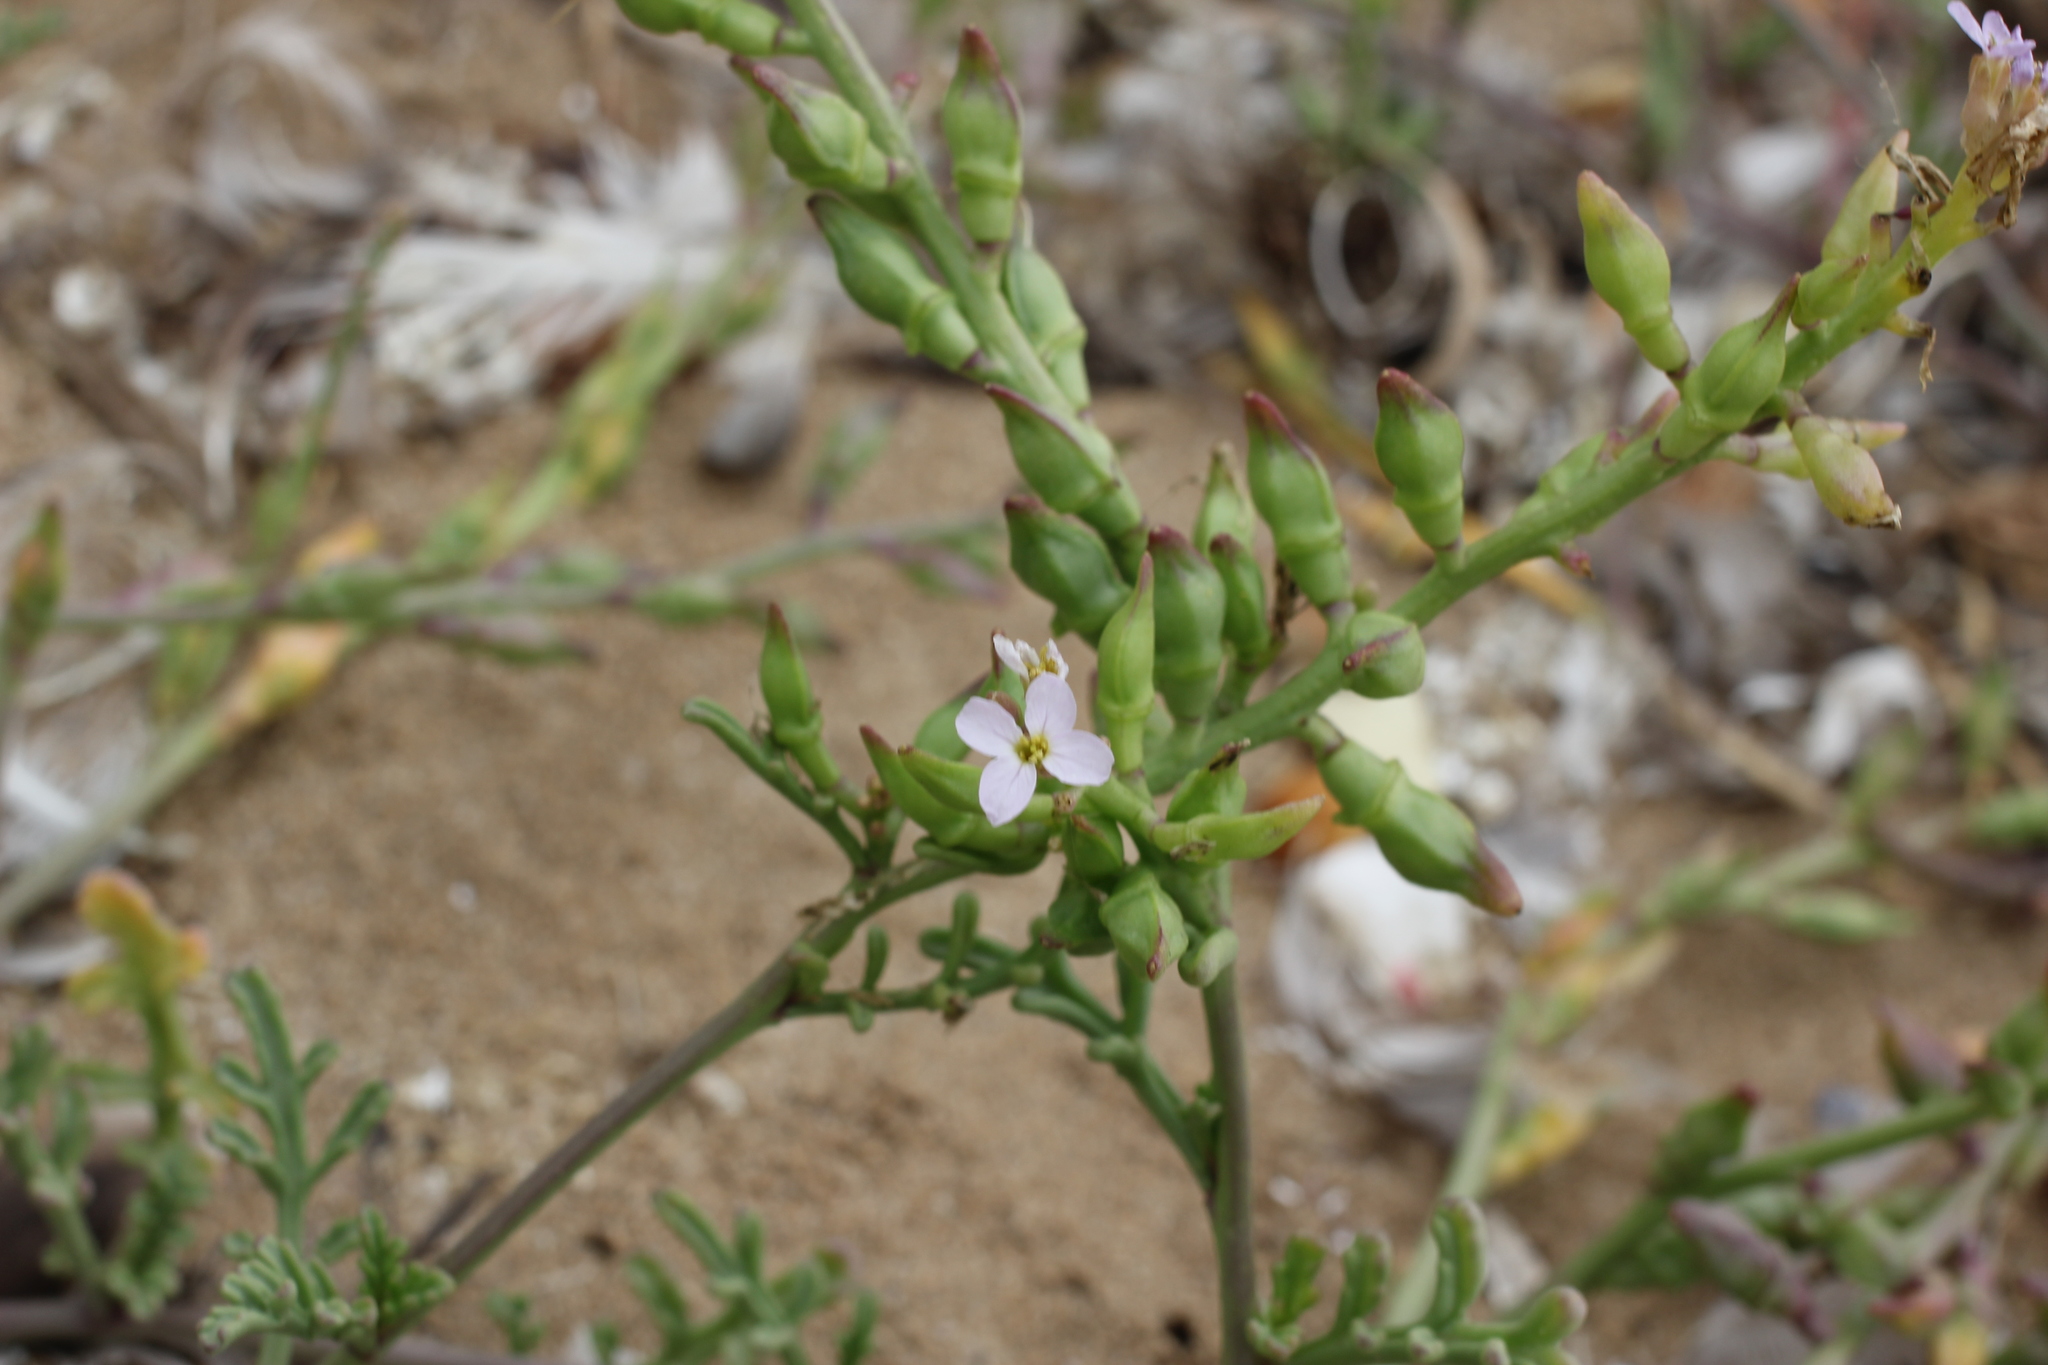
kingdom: Plantae
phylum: Tracheophyta
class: Magnoliopsida
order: Brassicales
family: Brassicaceae
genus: Cakile
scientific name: Cakile maritima
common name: Sea rocket
